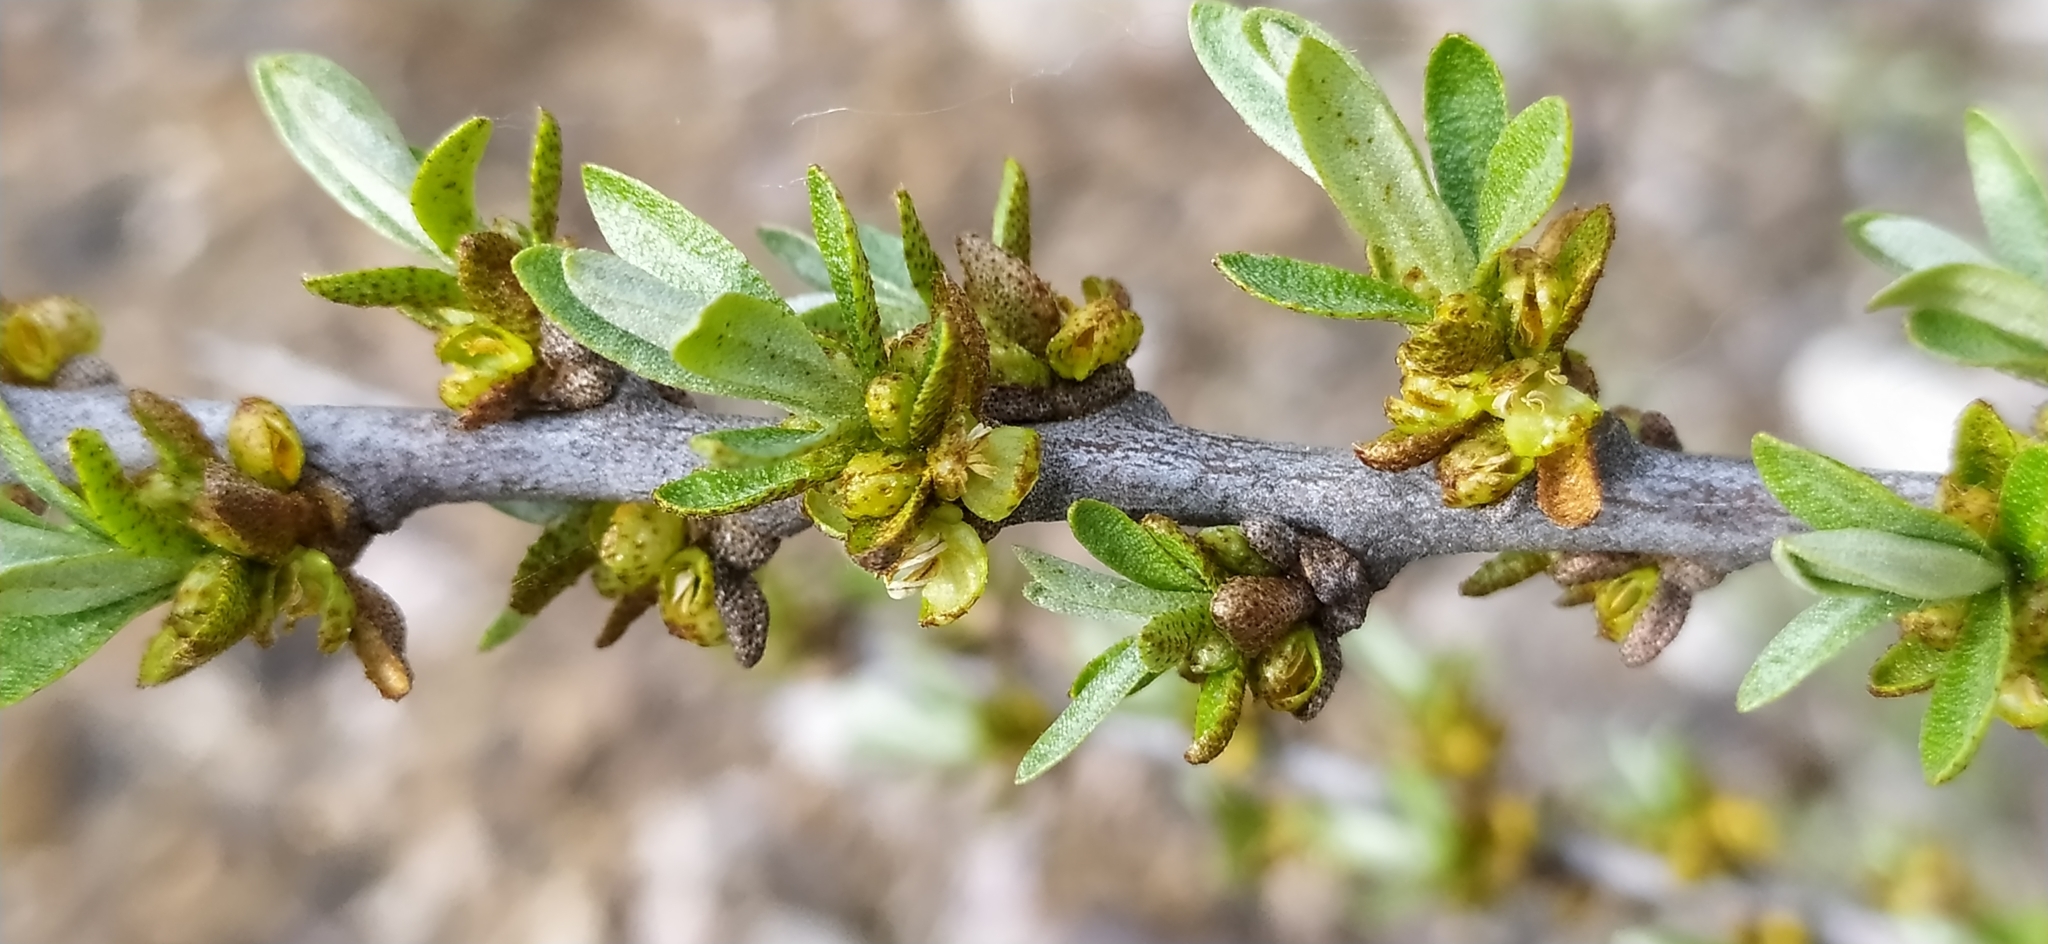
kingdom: Plantae
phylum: Tracheophyta
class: Magnoliopsida
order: Rosales
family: Elaeagnaceae
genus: Hippophae
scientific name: Hippophae rhamnoides
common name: Sea-buckthorn
